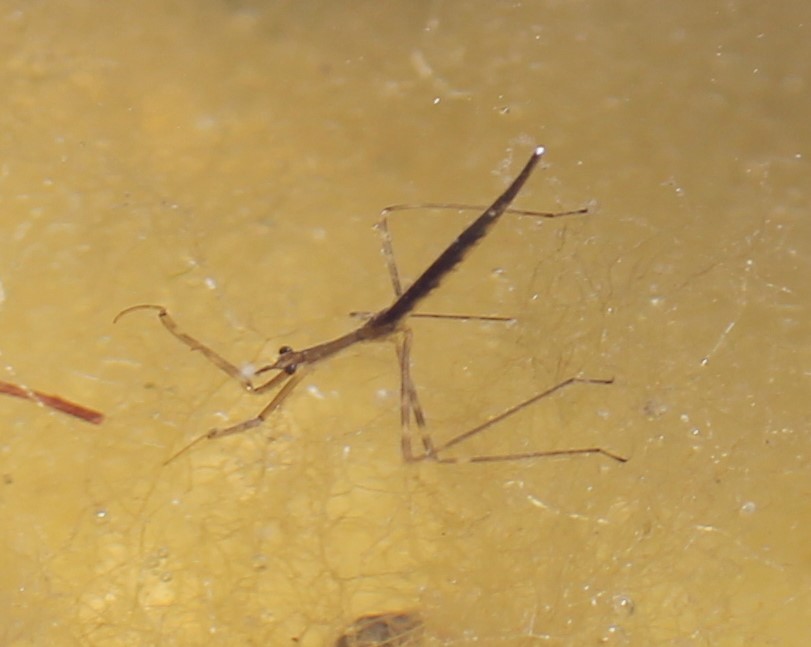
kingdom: Animalia
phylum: Arthropoda
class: Insecta
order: Hemiptera
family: Nepidae
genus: Ranatra
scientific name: Ranatra quadridentata
